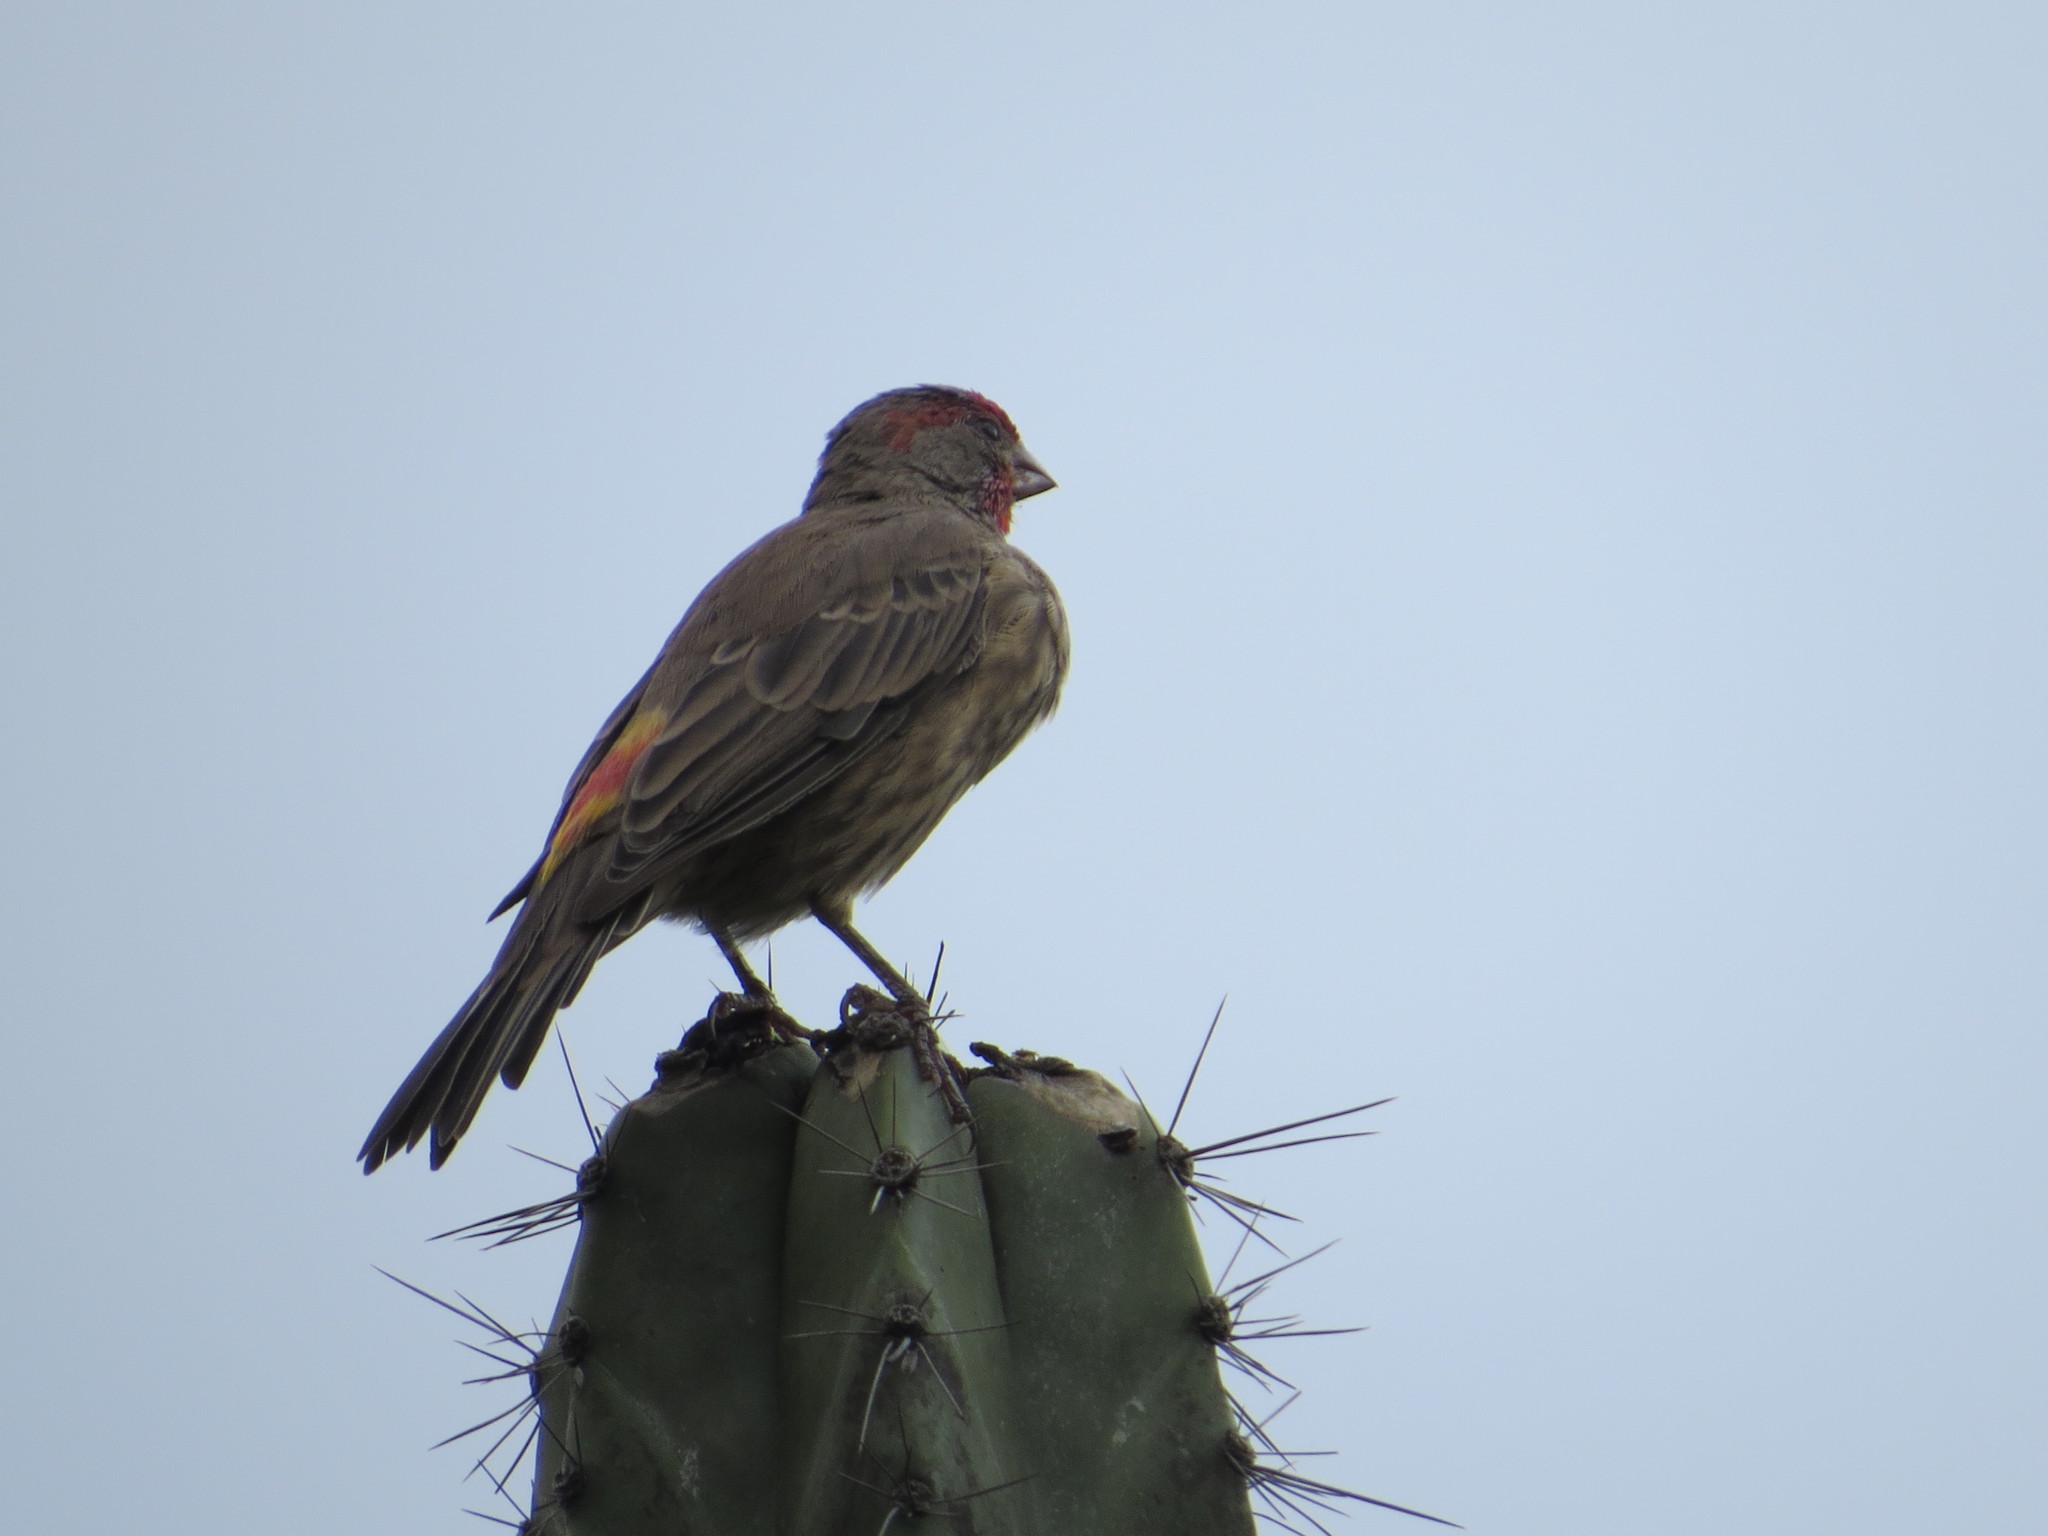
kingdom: Animalia
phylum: Chordata
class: Aves
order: Passeriformes
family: Fringillidae
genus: Haemorhous
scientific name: Haemorhous mexicanus
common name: House finch
